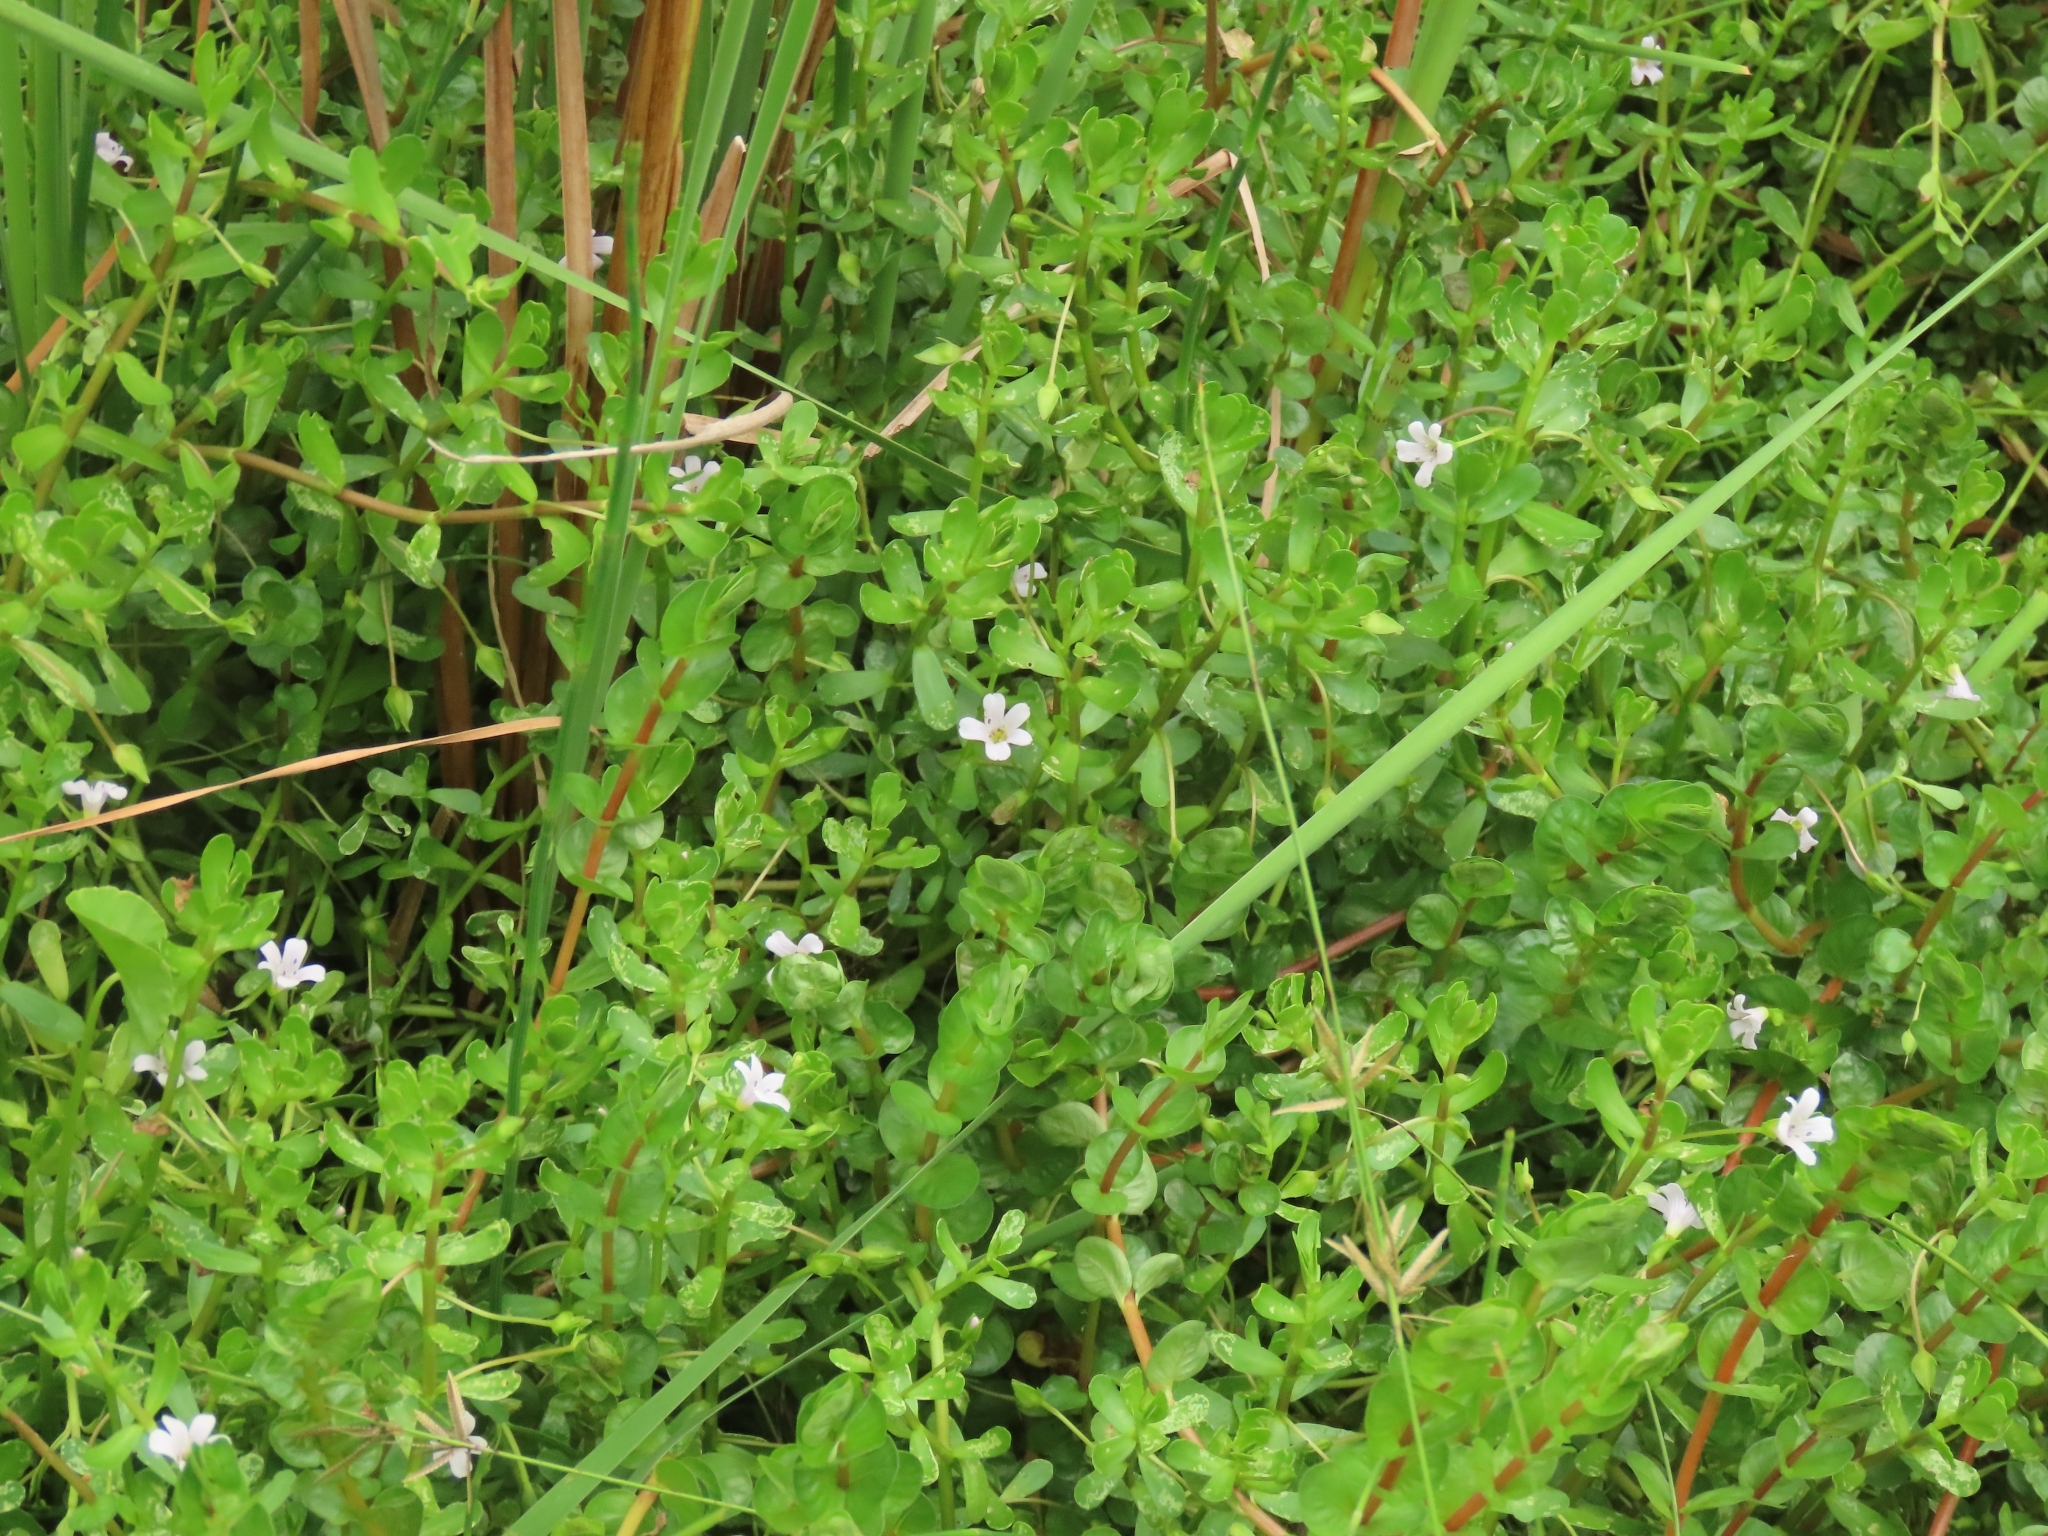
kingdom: Plantae
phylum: Tracheophyta
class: Magnoliopsida
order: Lamiales
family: Plantaginaceae
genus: Bacopa
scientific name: Bacopa monnieri
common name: Indian-pennywort
